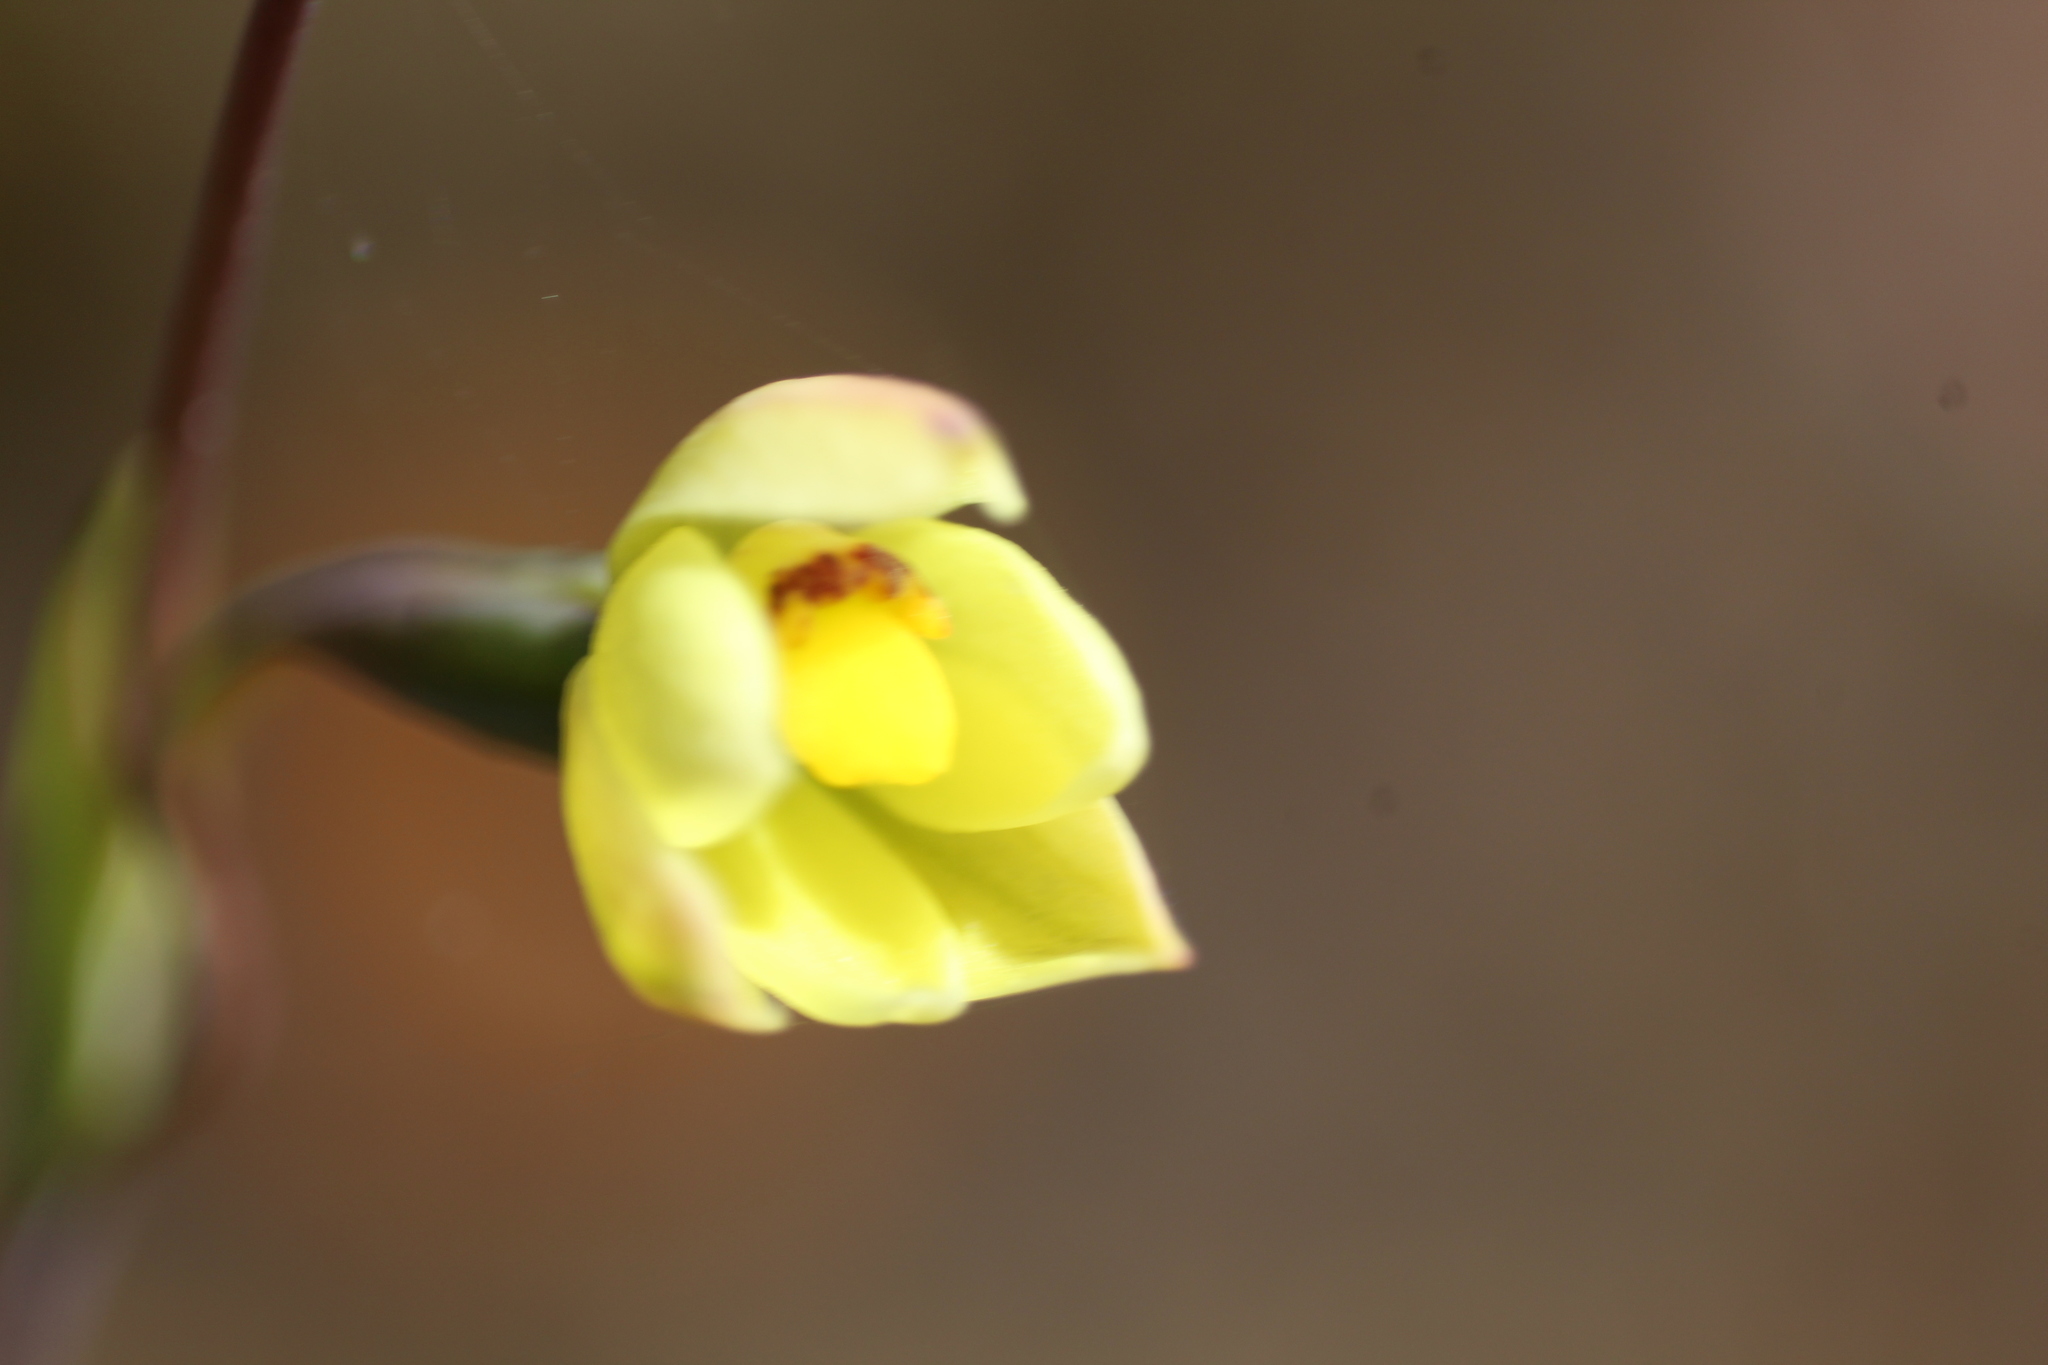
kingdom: Plantae
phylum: Tracheophyta
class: Liliopsida
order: Asparagales
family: Orchidaceae
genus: Thelymitra
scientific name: Thelymitra flexuosa
